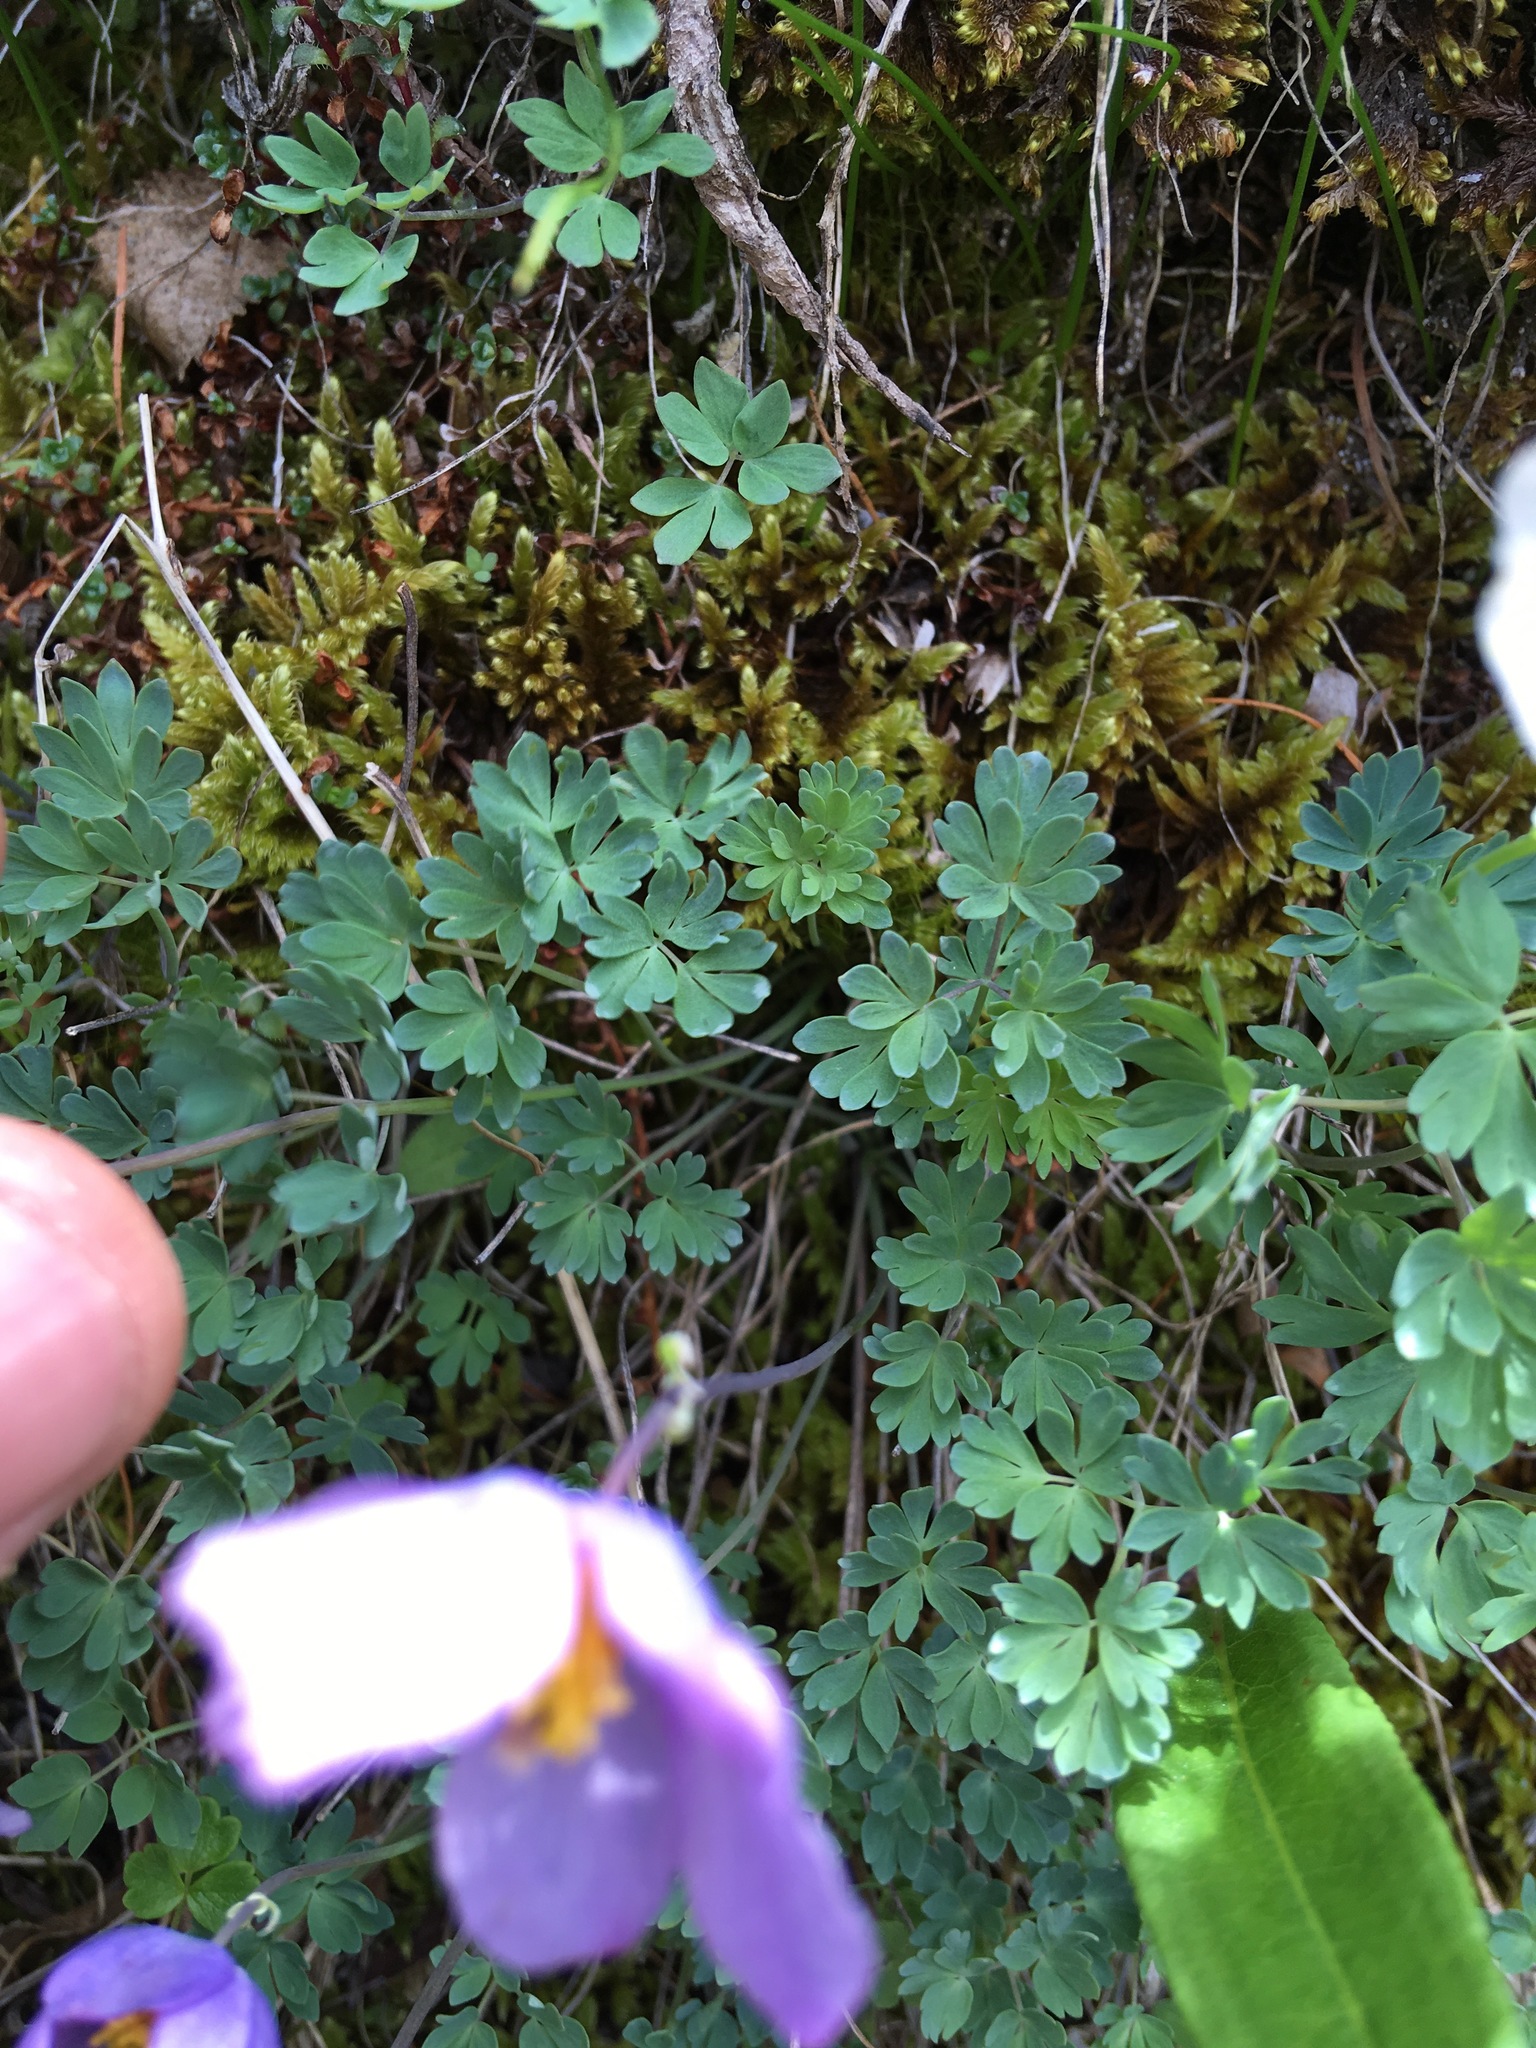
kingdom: Plantae
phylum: Tracheophyta
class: Magnoliopsida
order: Ranunculales
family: Ranunculaceae
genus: Paraquilegia
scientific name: Paraquilegia anemonoides
